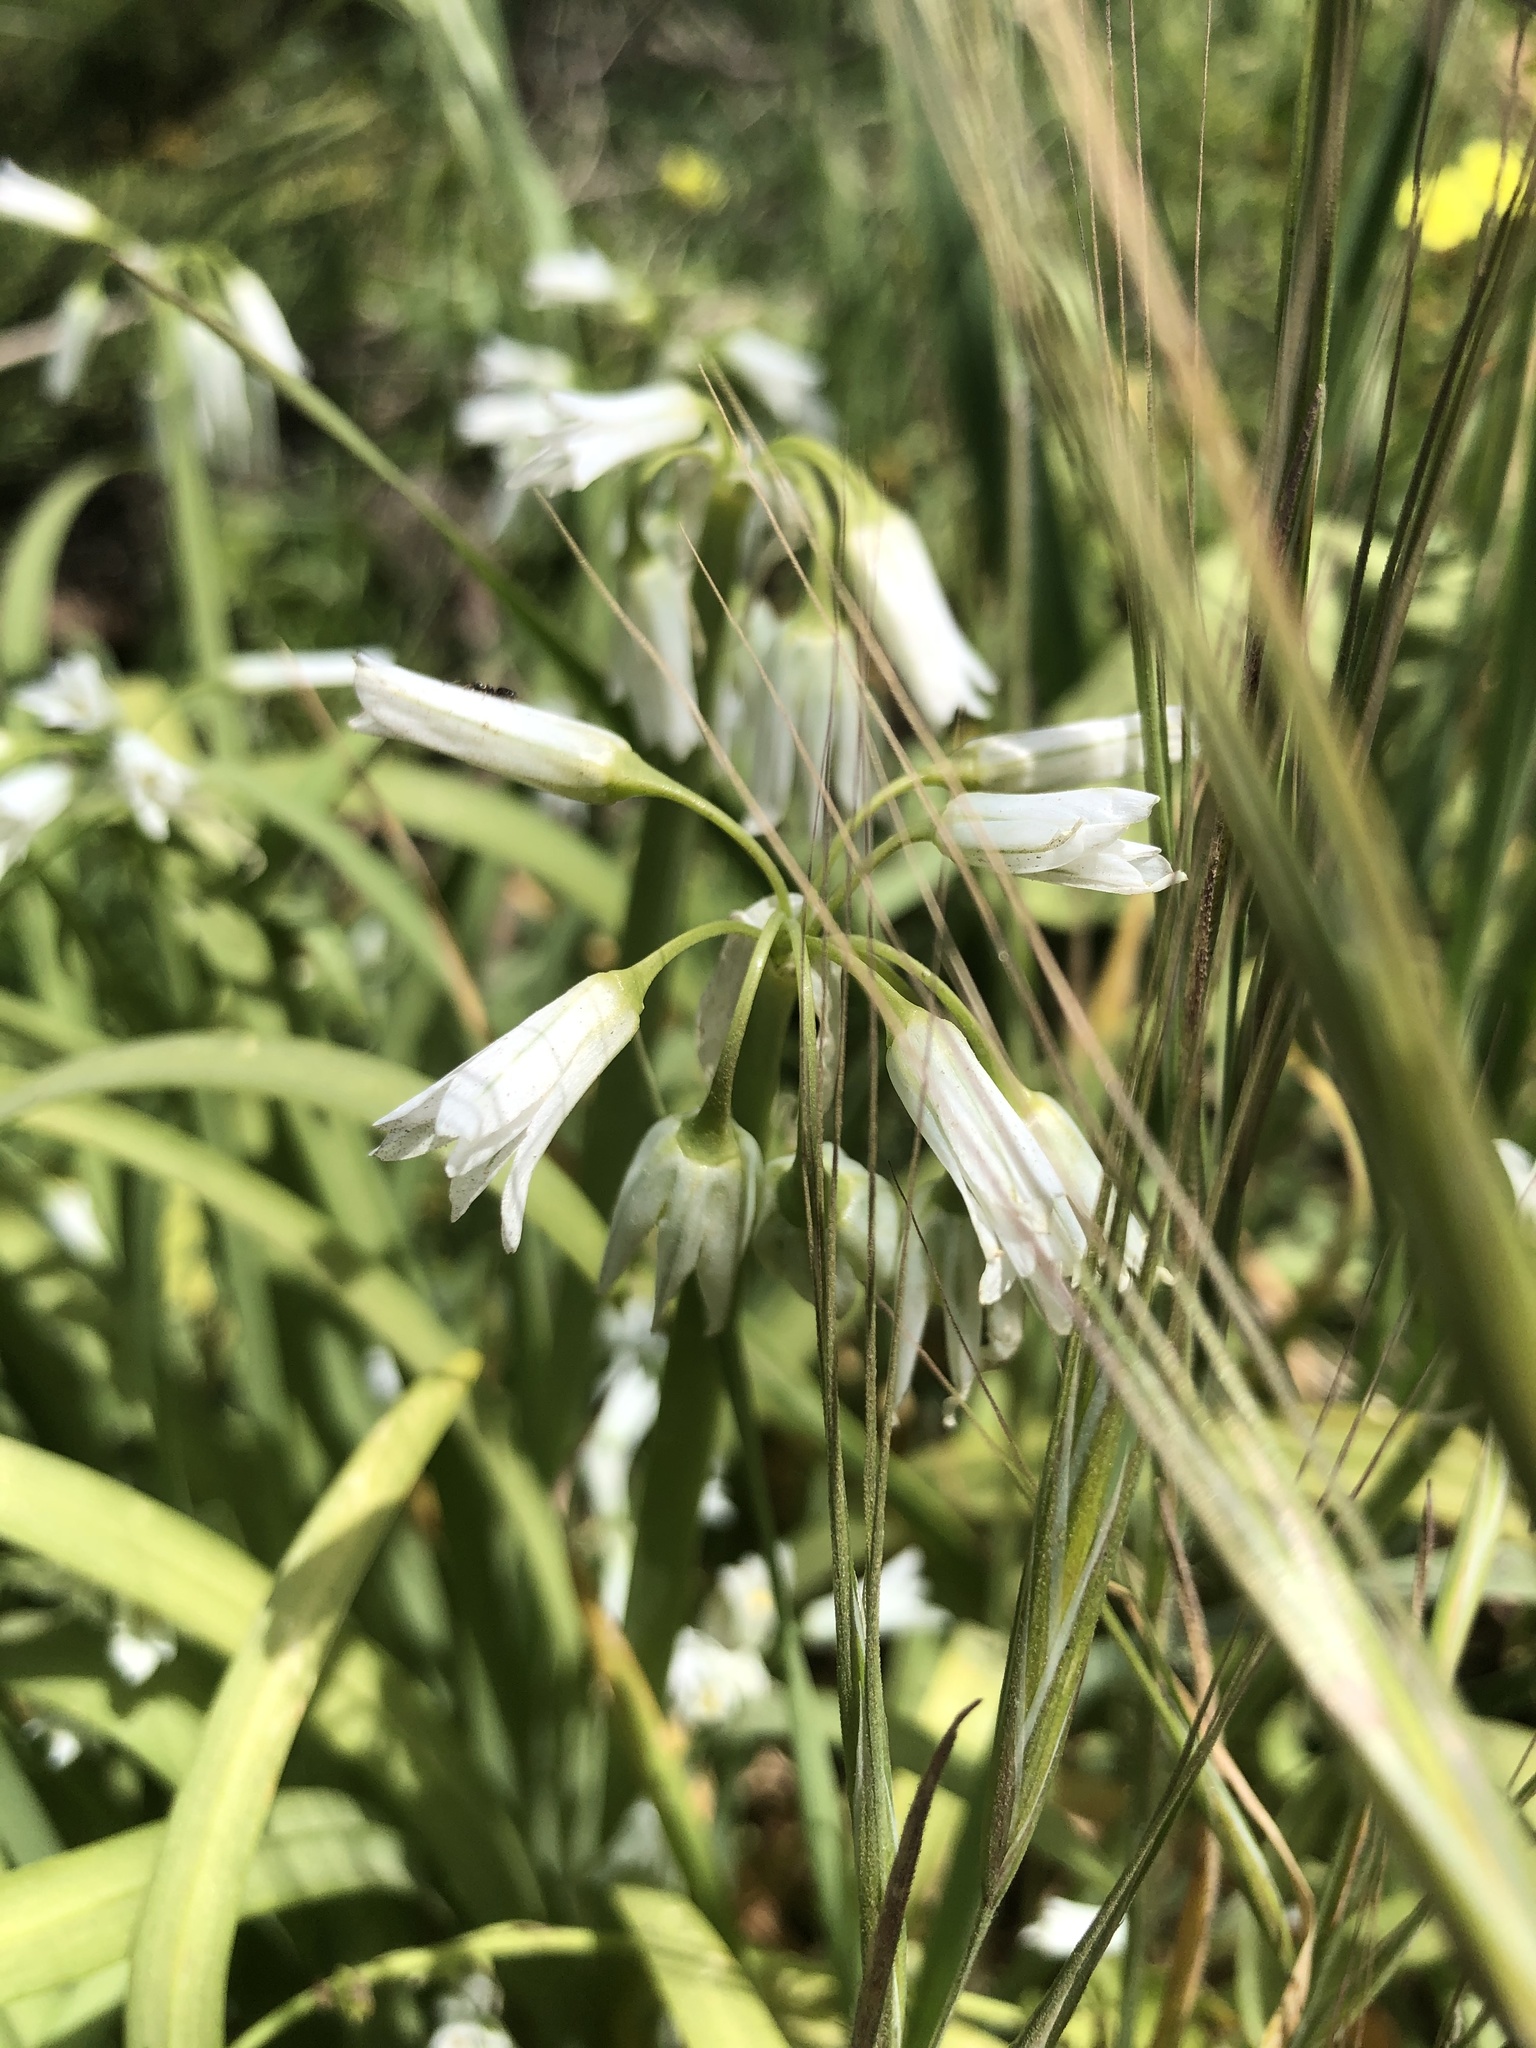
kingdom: Plantae
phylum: Tracheophyta
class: Liliopsida
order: Asparagales
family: Amaryllidaceae
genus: Allium
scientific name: Allium triquetrum
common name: Three-cornered garlic
